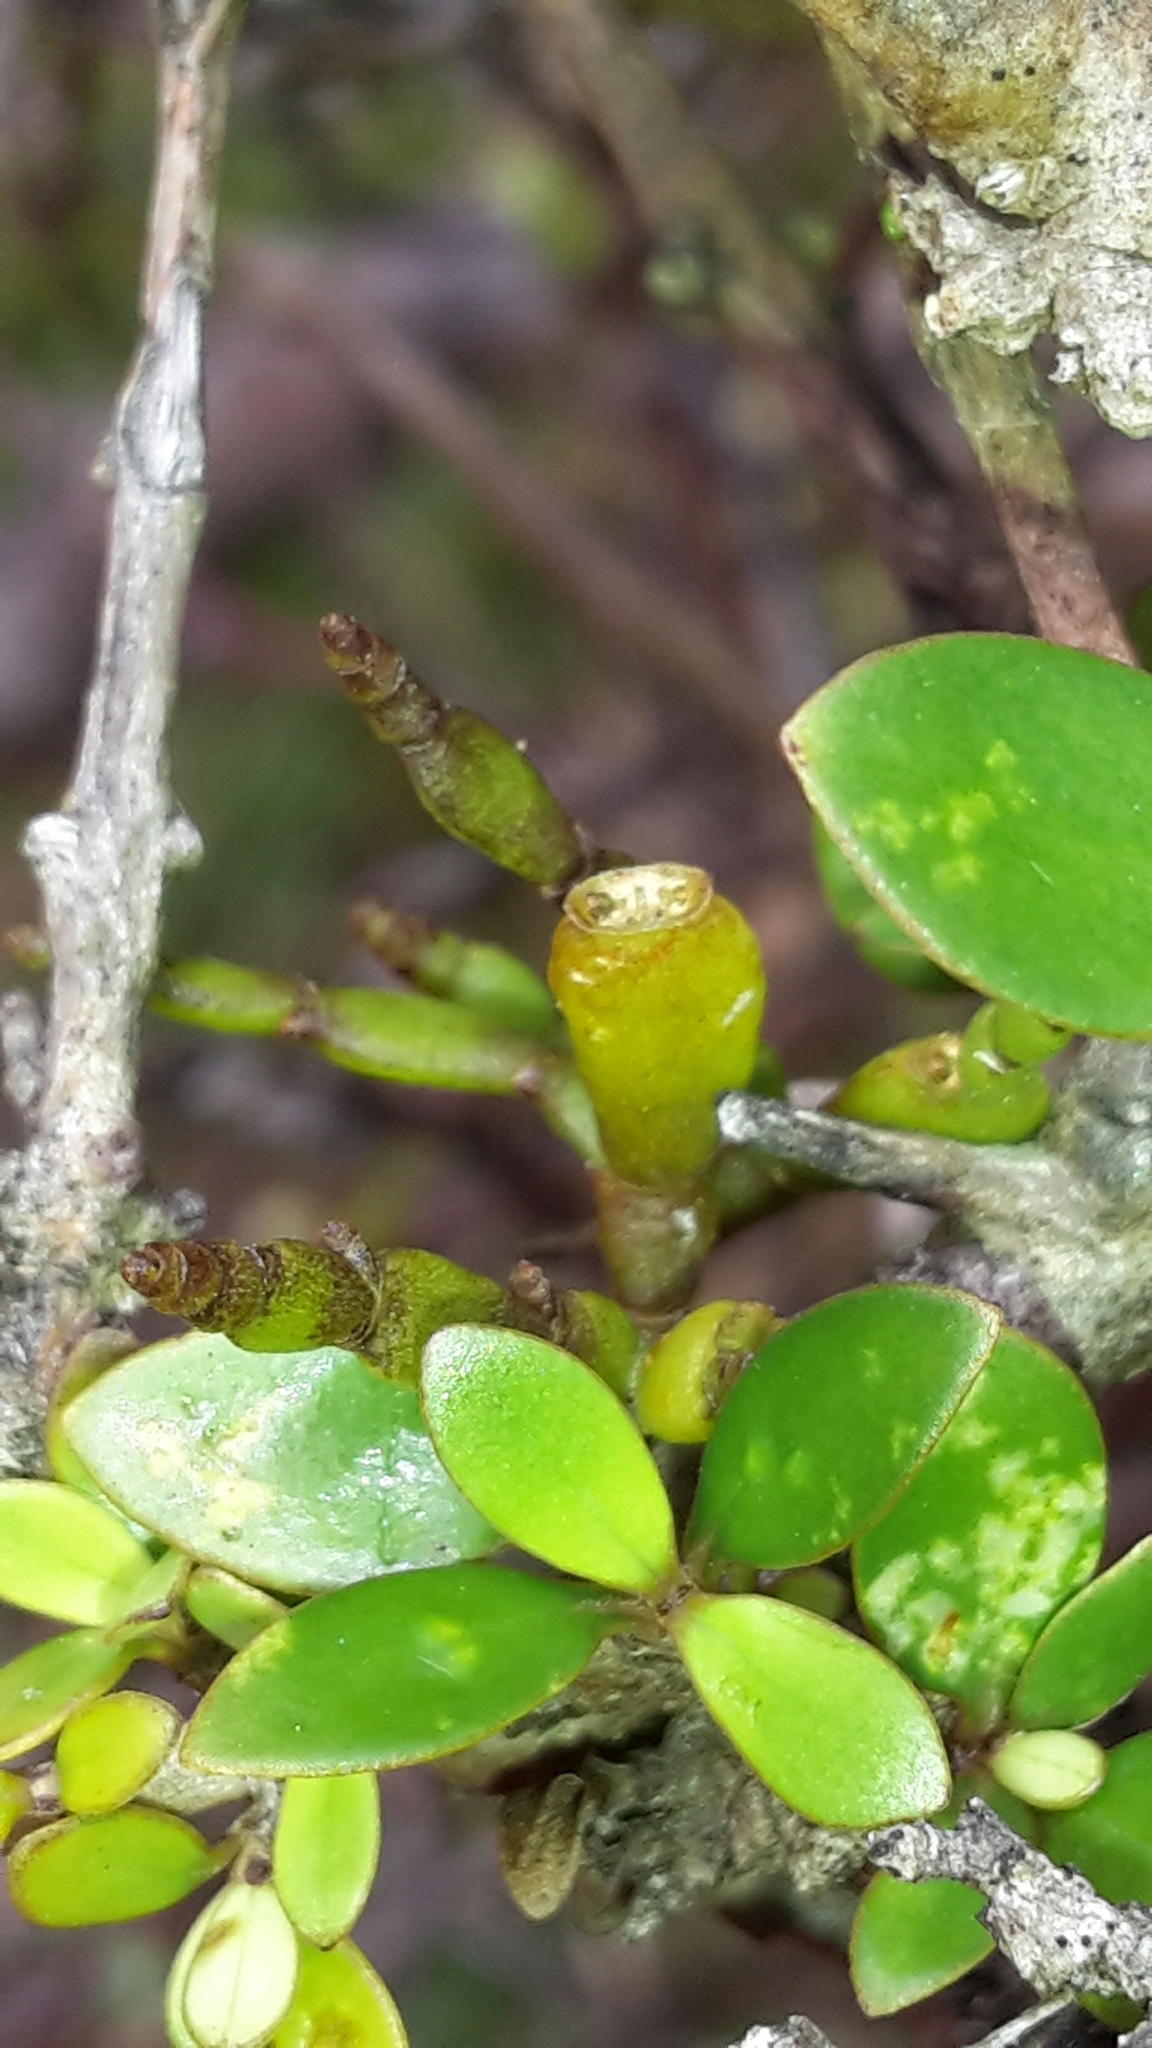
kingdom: Plantae
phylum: Tracheophyta
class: Magnoliopsida
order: Santalales
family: Viscaceae
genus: Korthalsella
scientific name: Korthalsella clavata
